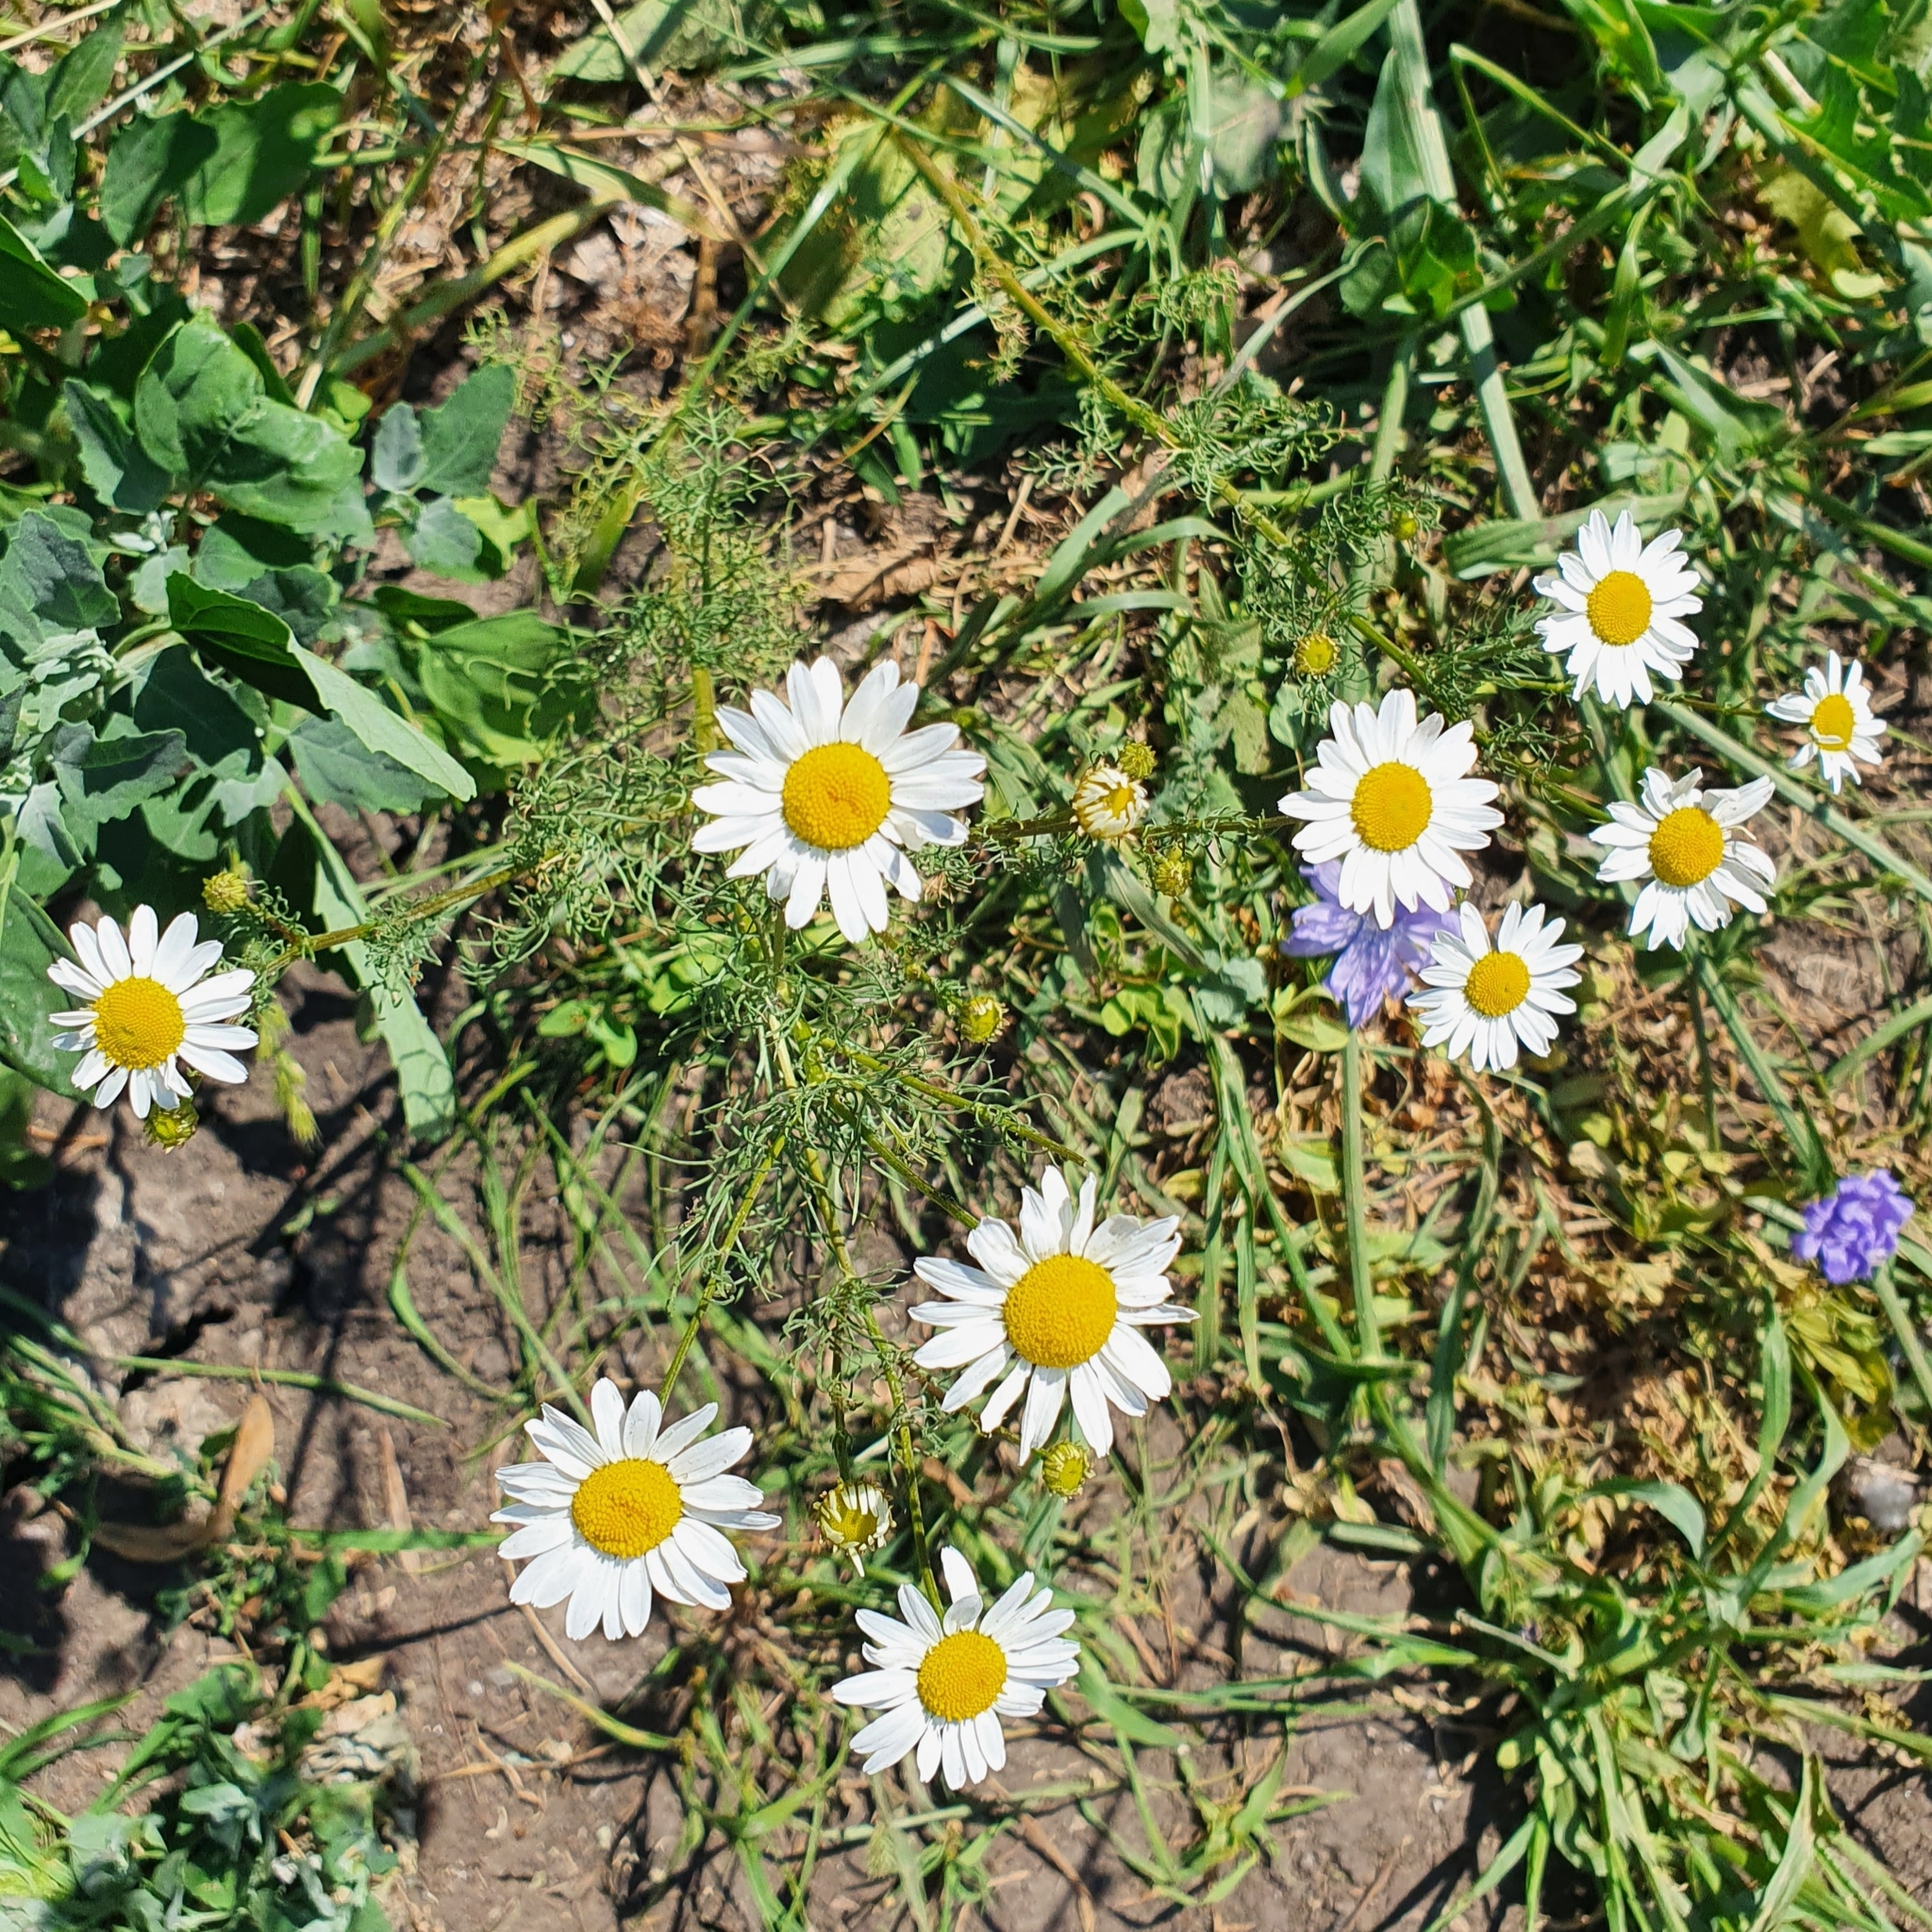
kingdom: Plantae
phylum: Tracheophyta
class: Magnoliopsida
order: Asterales
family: Asteraceae
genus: Tripleurospermum
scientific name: Tripleurospermum inodorum
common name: Scentless mayweed
